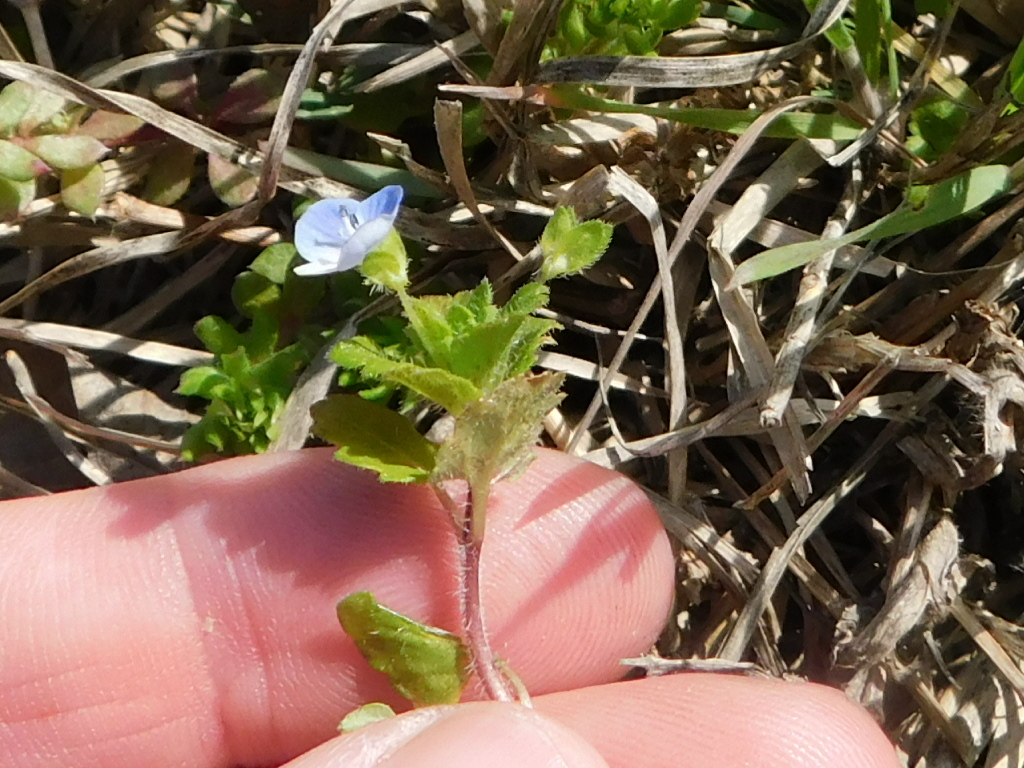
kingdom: Plantae
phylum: Tracheophyta
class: Magnoliopsida
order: Lamiales
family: Plantaginaceae
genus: Veronica
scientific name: Veronica persica
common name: Common field-speedwell
